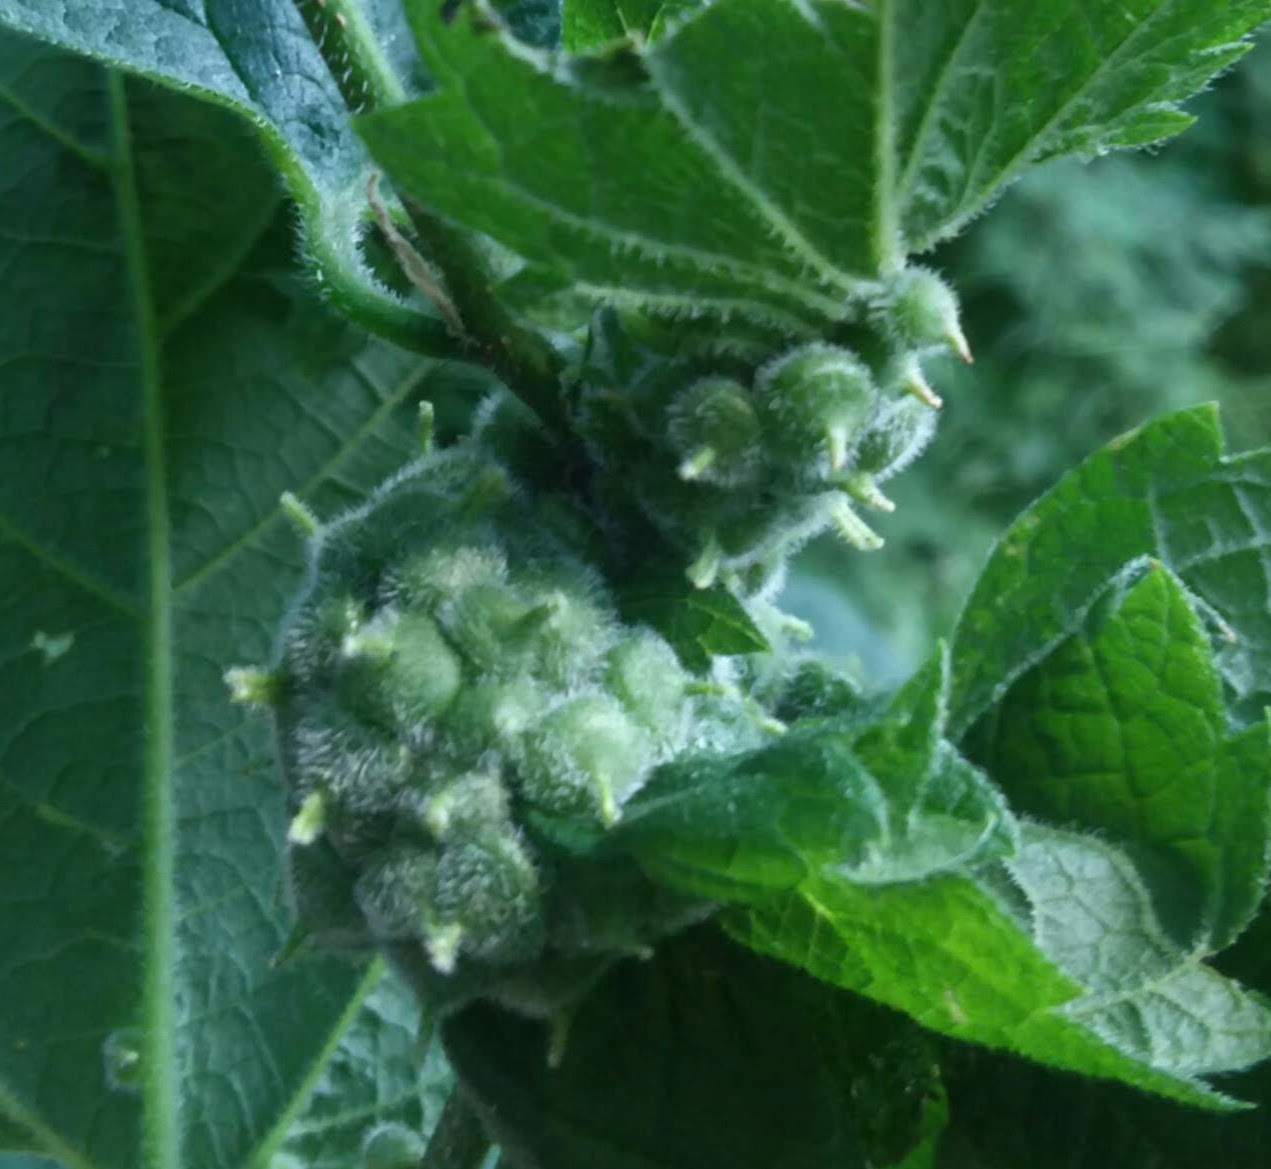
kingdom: Animalia
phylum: Arthropoda
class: Insecta
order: Diptera
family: Cecidomyiidae
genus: Celticecis
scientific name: Celticecis celtiphyllia
